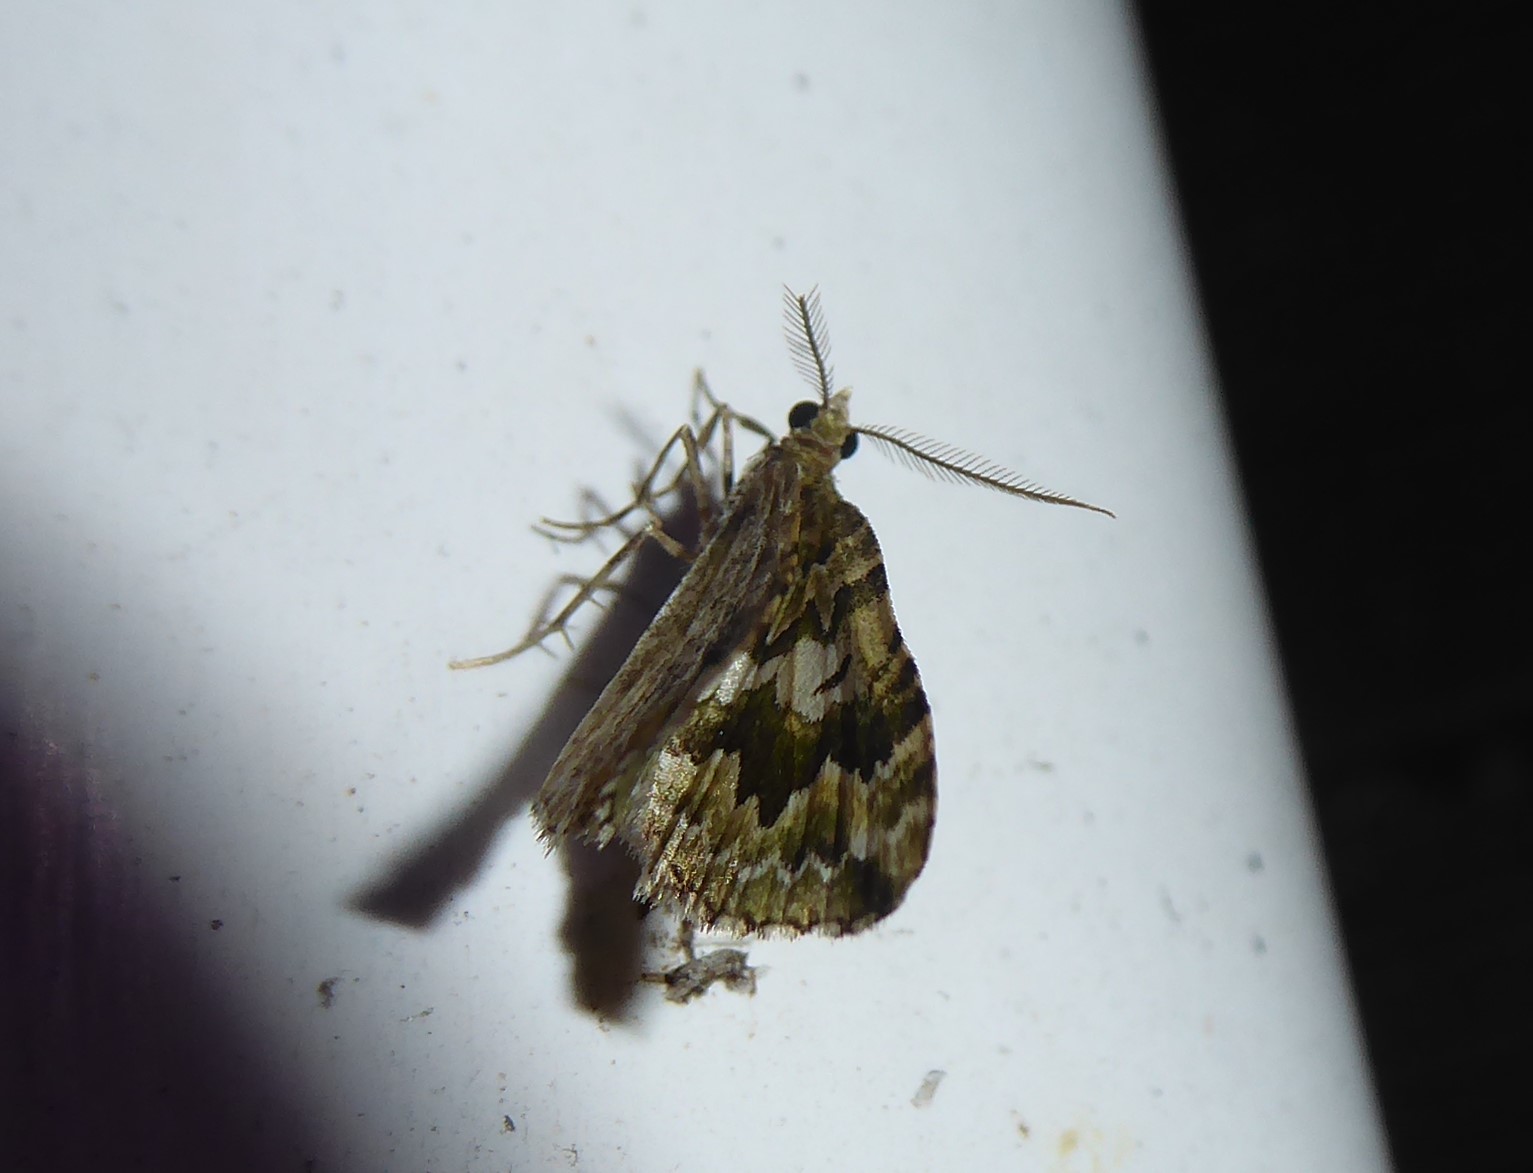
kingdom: Animalia
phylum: Arthropoda
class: Insecta
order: Lepidoptera
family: Geometridae
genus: Asaphodes
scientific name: Asaphodes beata
